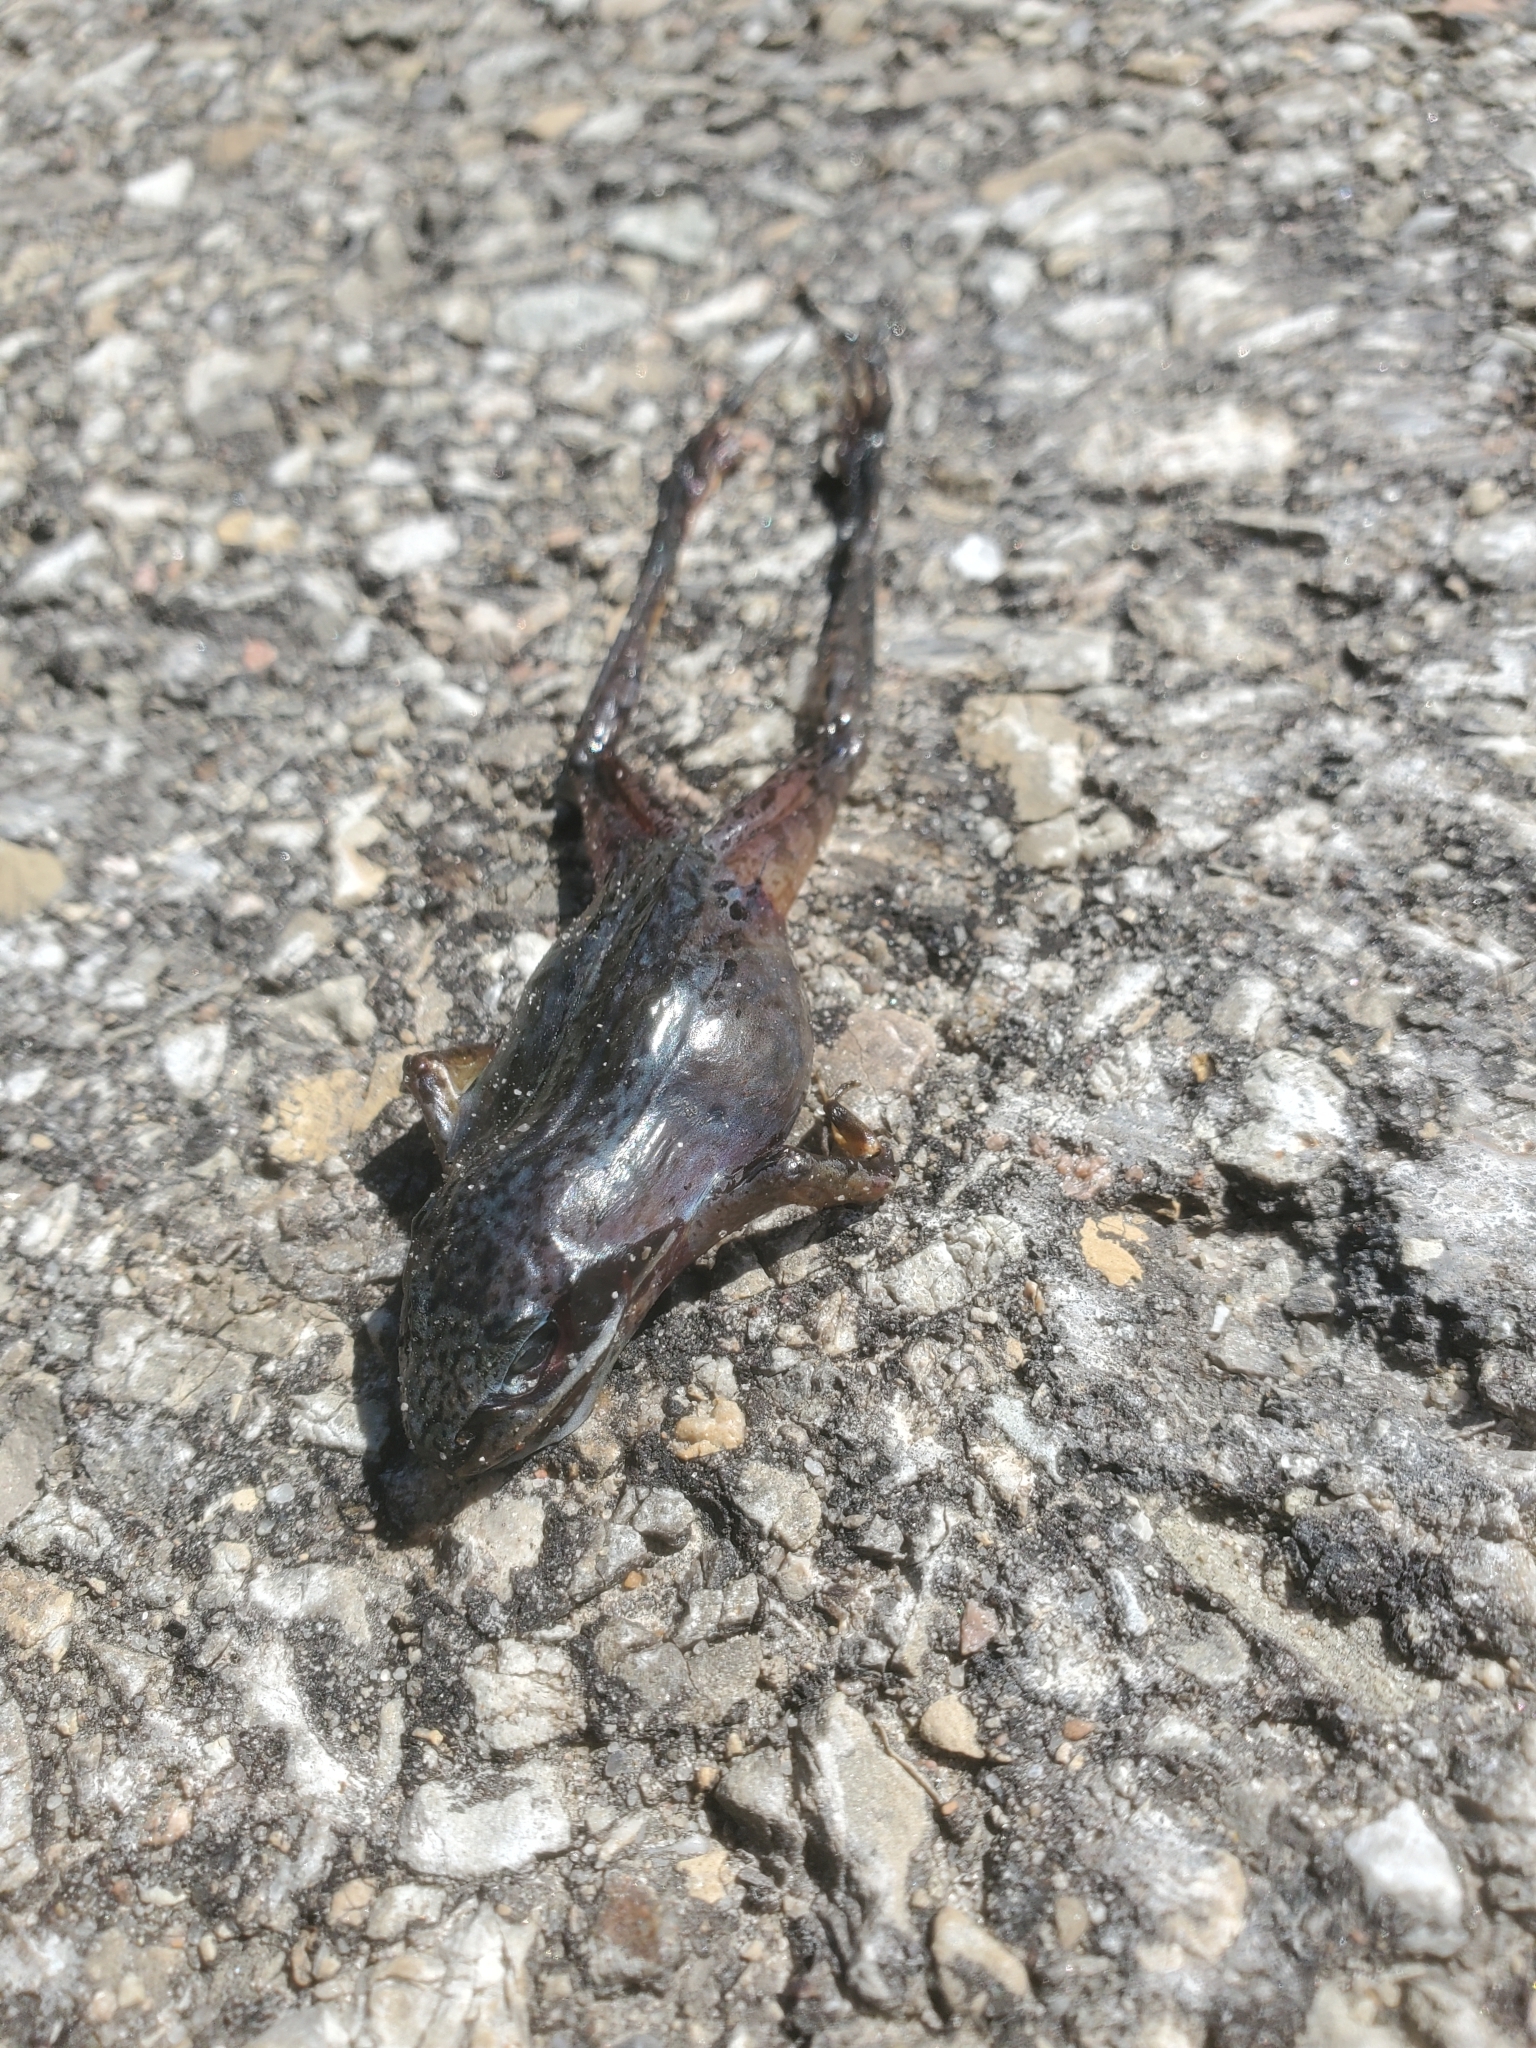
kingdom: Animalia
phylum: Chordata
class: Amphibia
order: Anura
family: Ranidae
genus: Lithobates
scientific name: Lithobates sylvaticus
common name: Wood frog
